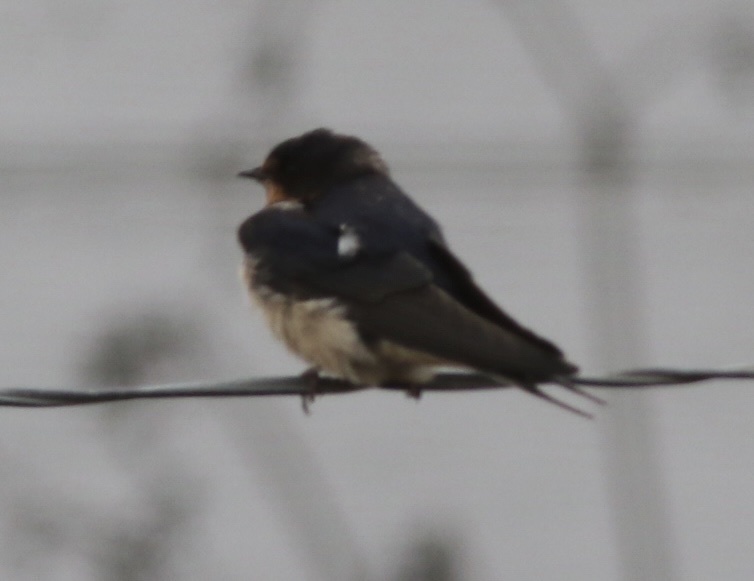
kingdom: Animalia
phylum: Chordata
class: Aves
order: Passeriformes
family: Hirundinidae
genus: Hirundo
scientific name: Hirundo rustica
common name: Barn swallow
